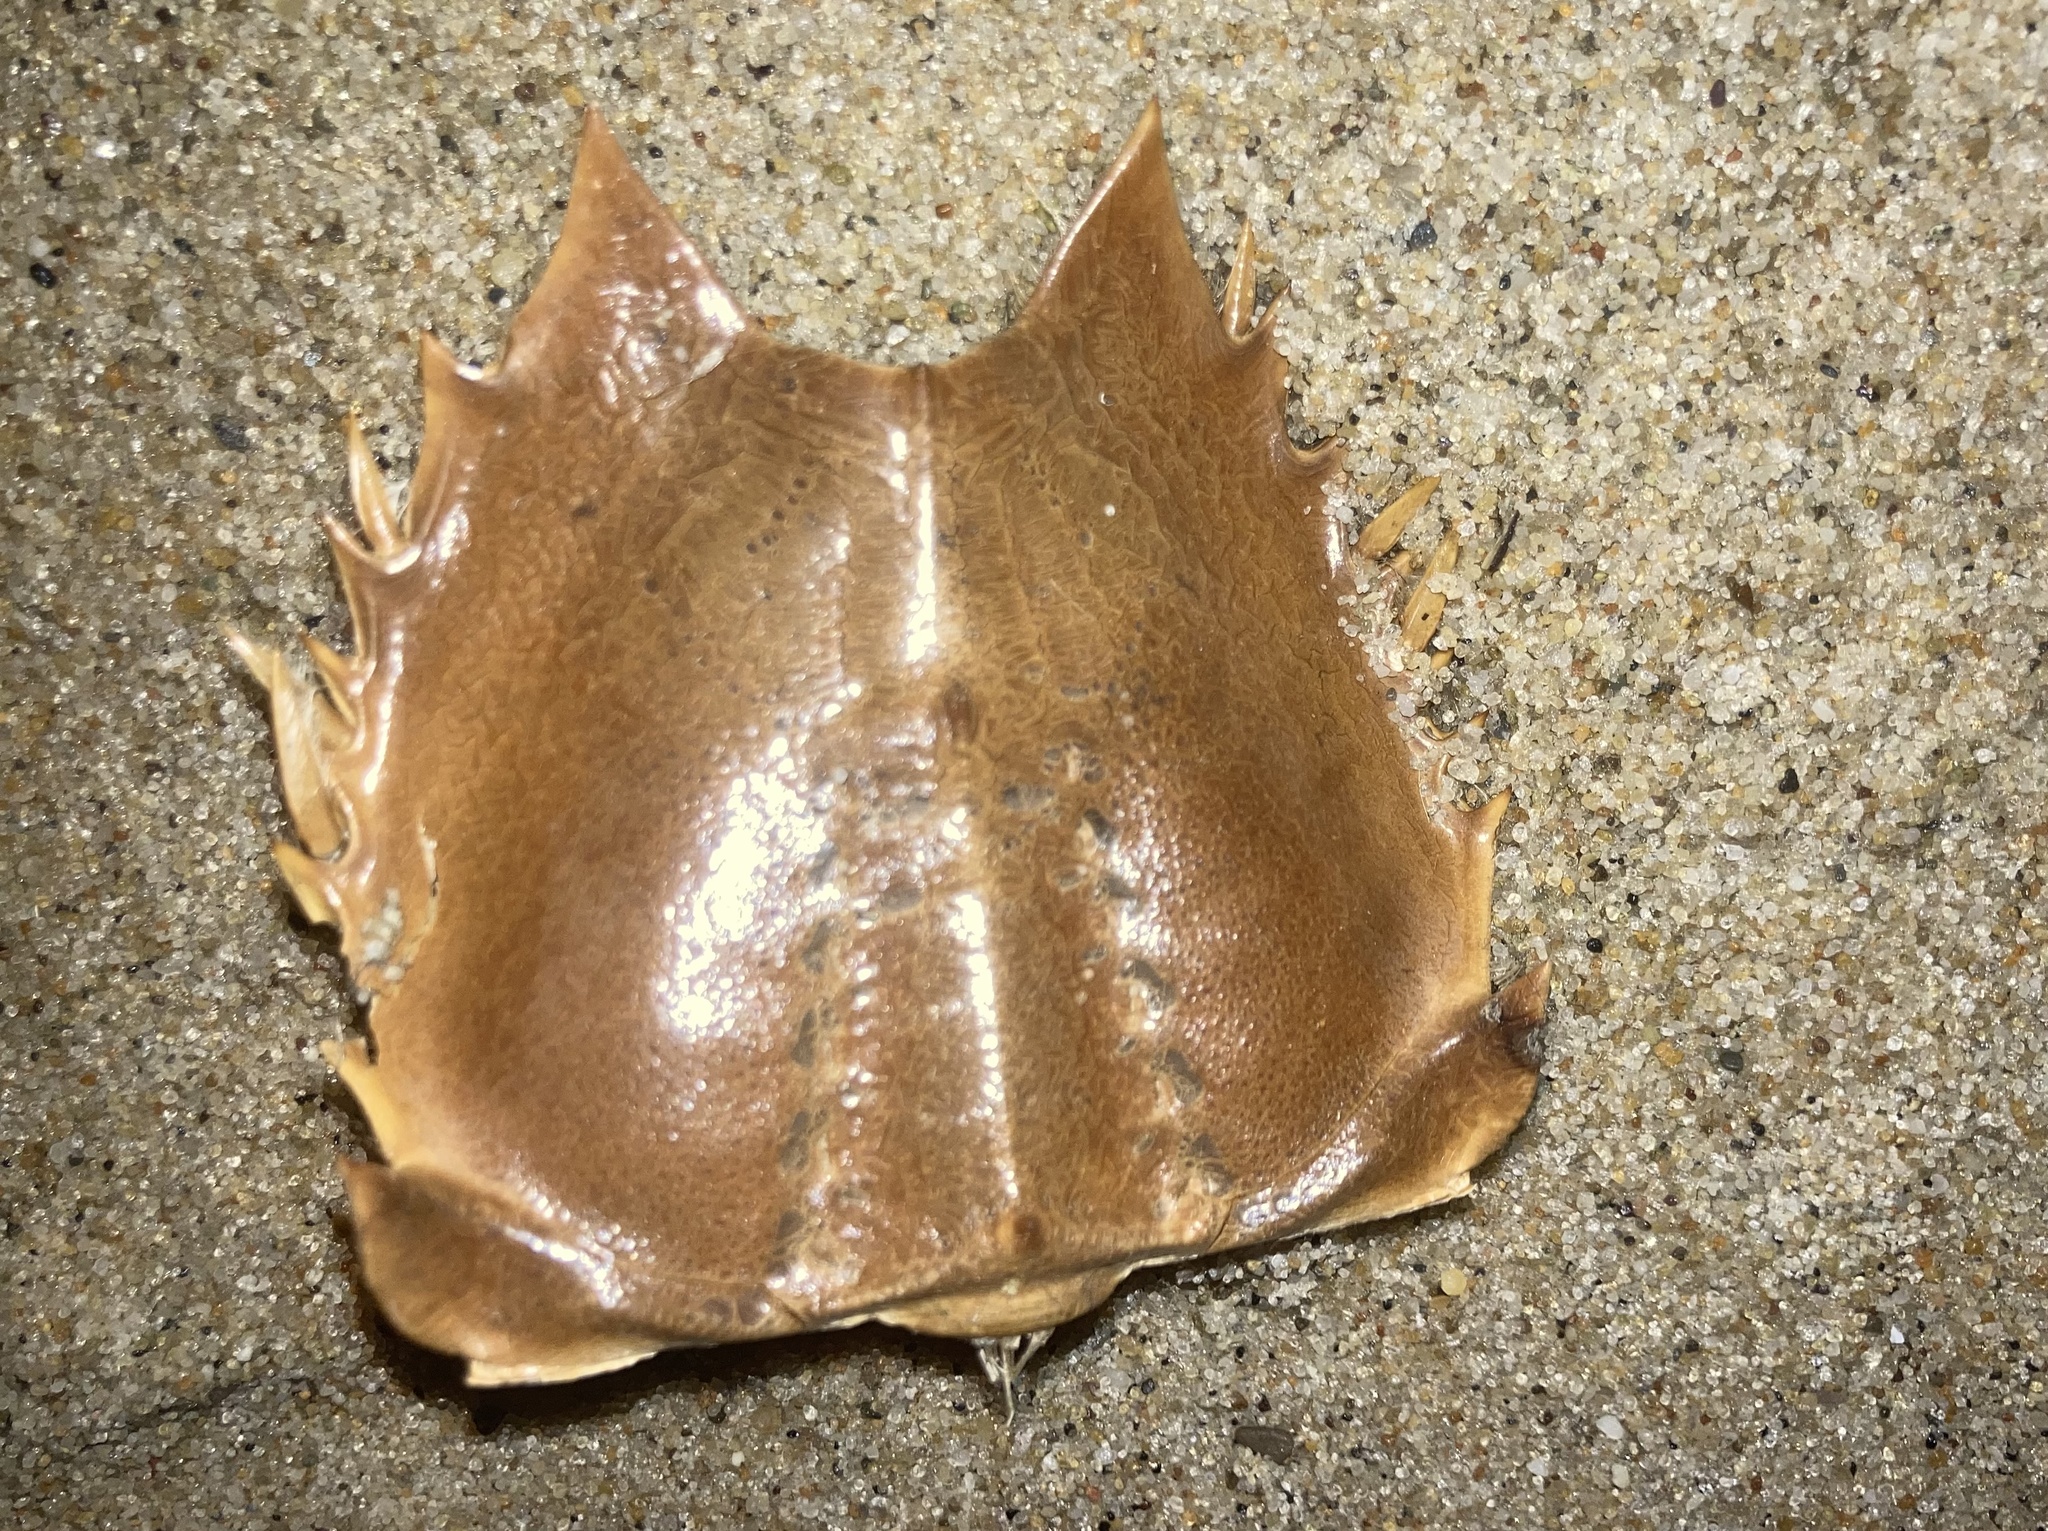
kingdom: Animalia
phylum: Arthropoda
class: Merostomata
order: Xiphosurida
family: Limulidae
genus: Limulus
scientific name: Limulus polyphemus
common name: Horseshoe crab
